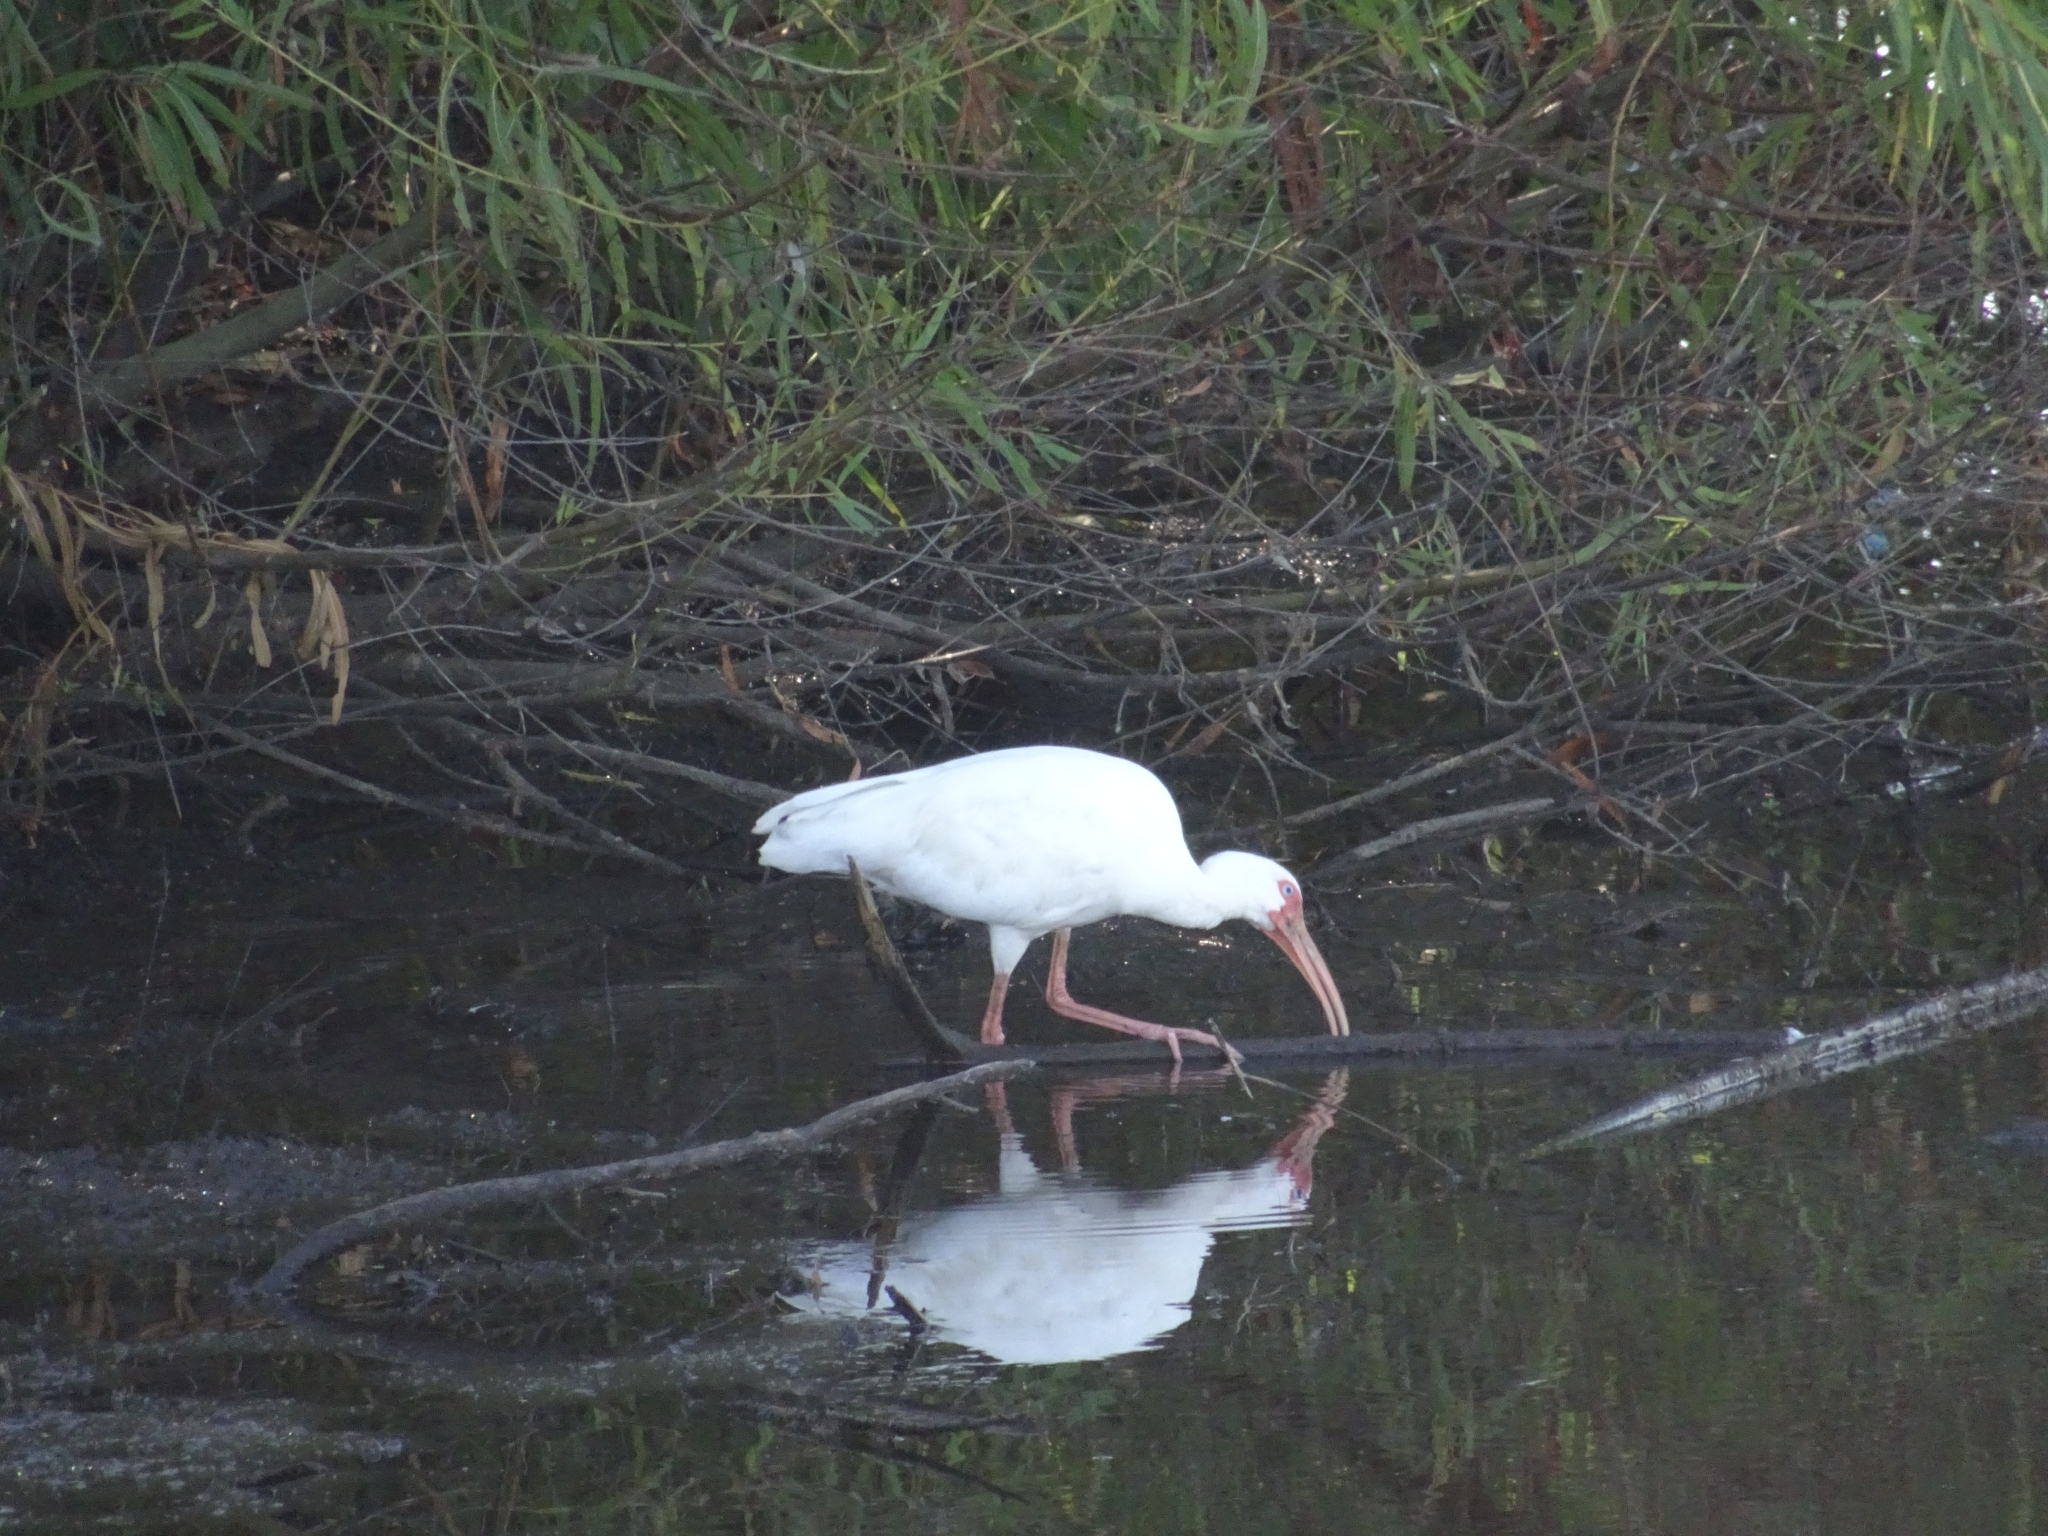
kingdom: Animalia
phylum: Chordata
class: Aves
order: Pelecaniformes
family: Threskiornithidae
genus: Eudocimus
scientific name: Eudocimus albus
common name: White ibis
